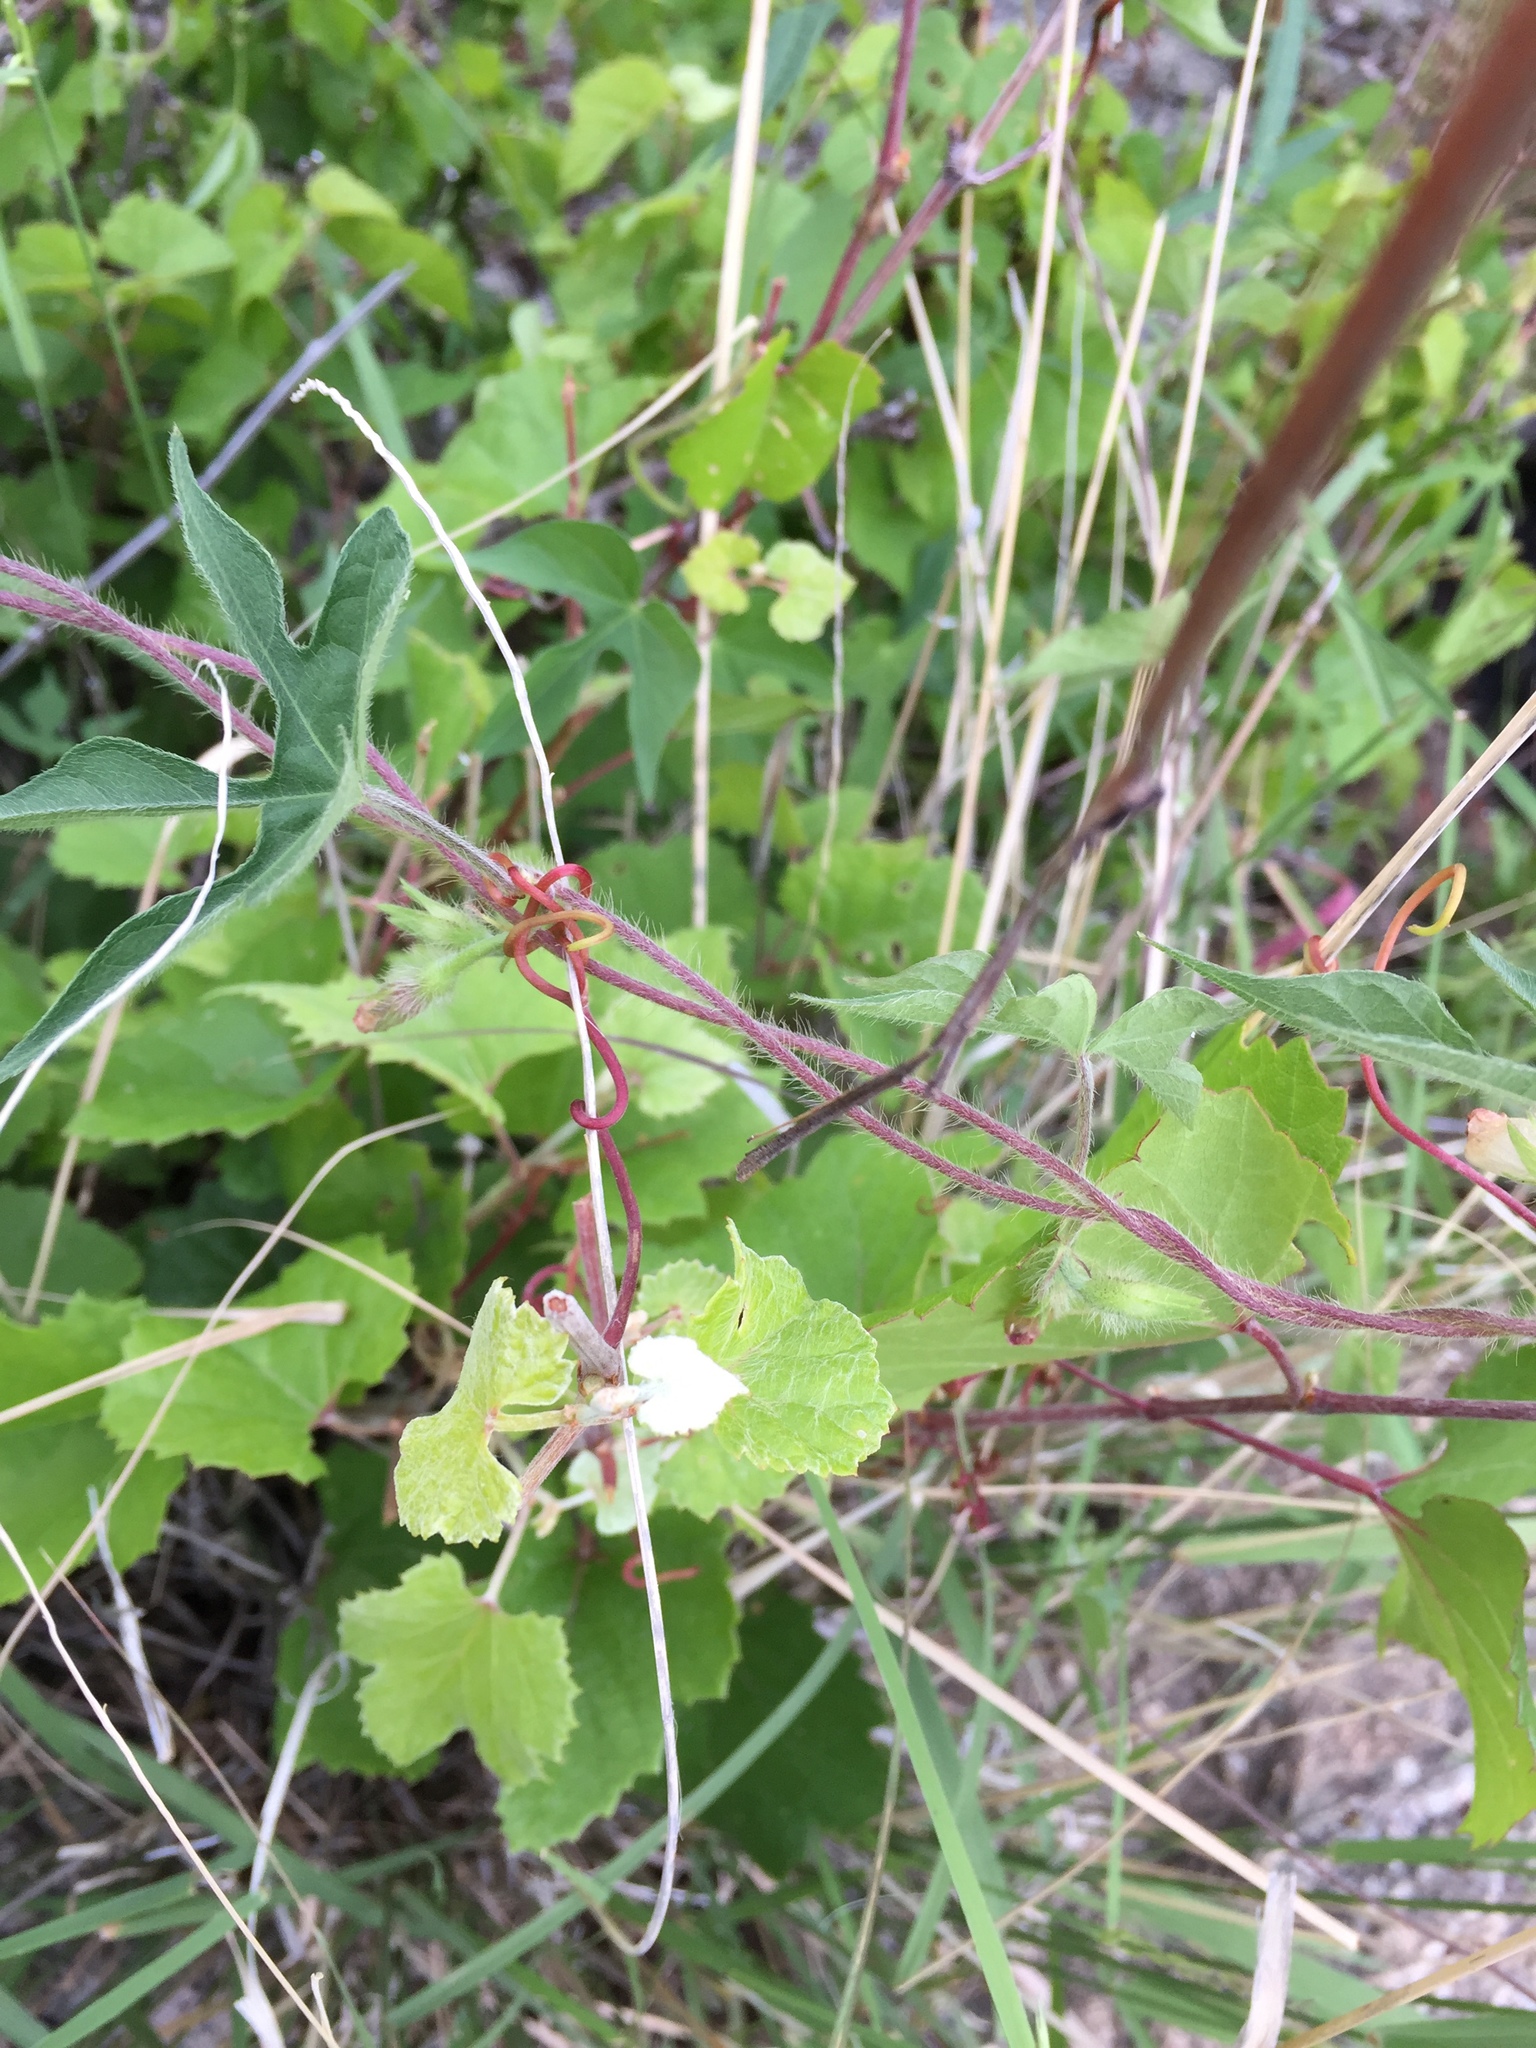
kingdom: Plantae
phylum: Tracheophyta
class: Magnoliopsida
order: Vitales
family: Vitaceae
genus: Vitis
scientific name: Vitis arizonica
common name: Canyon grape
